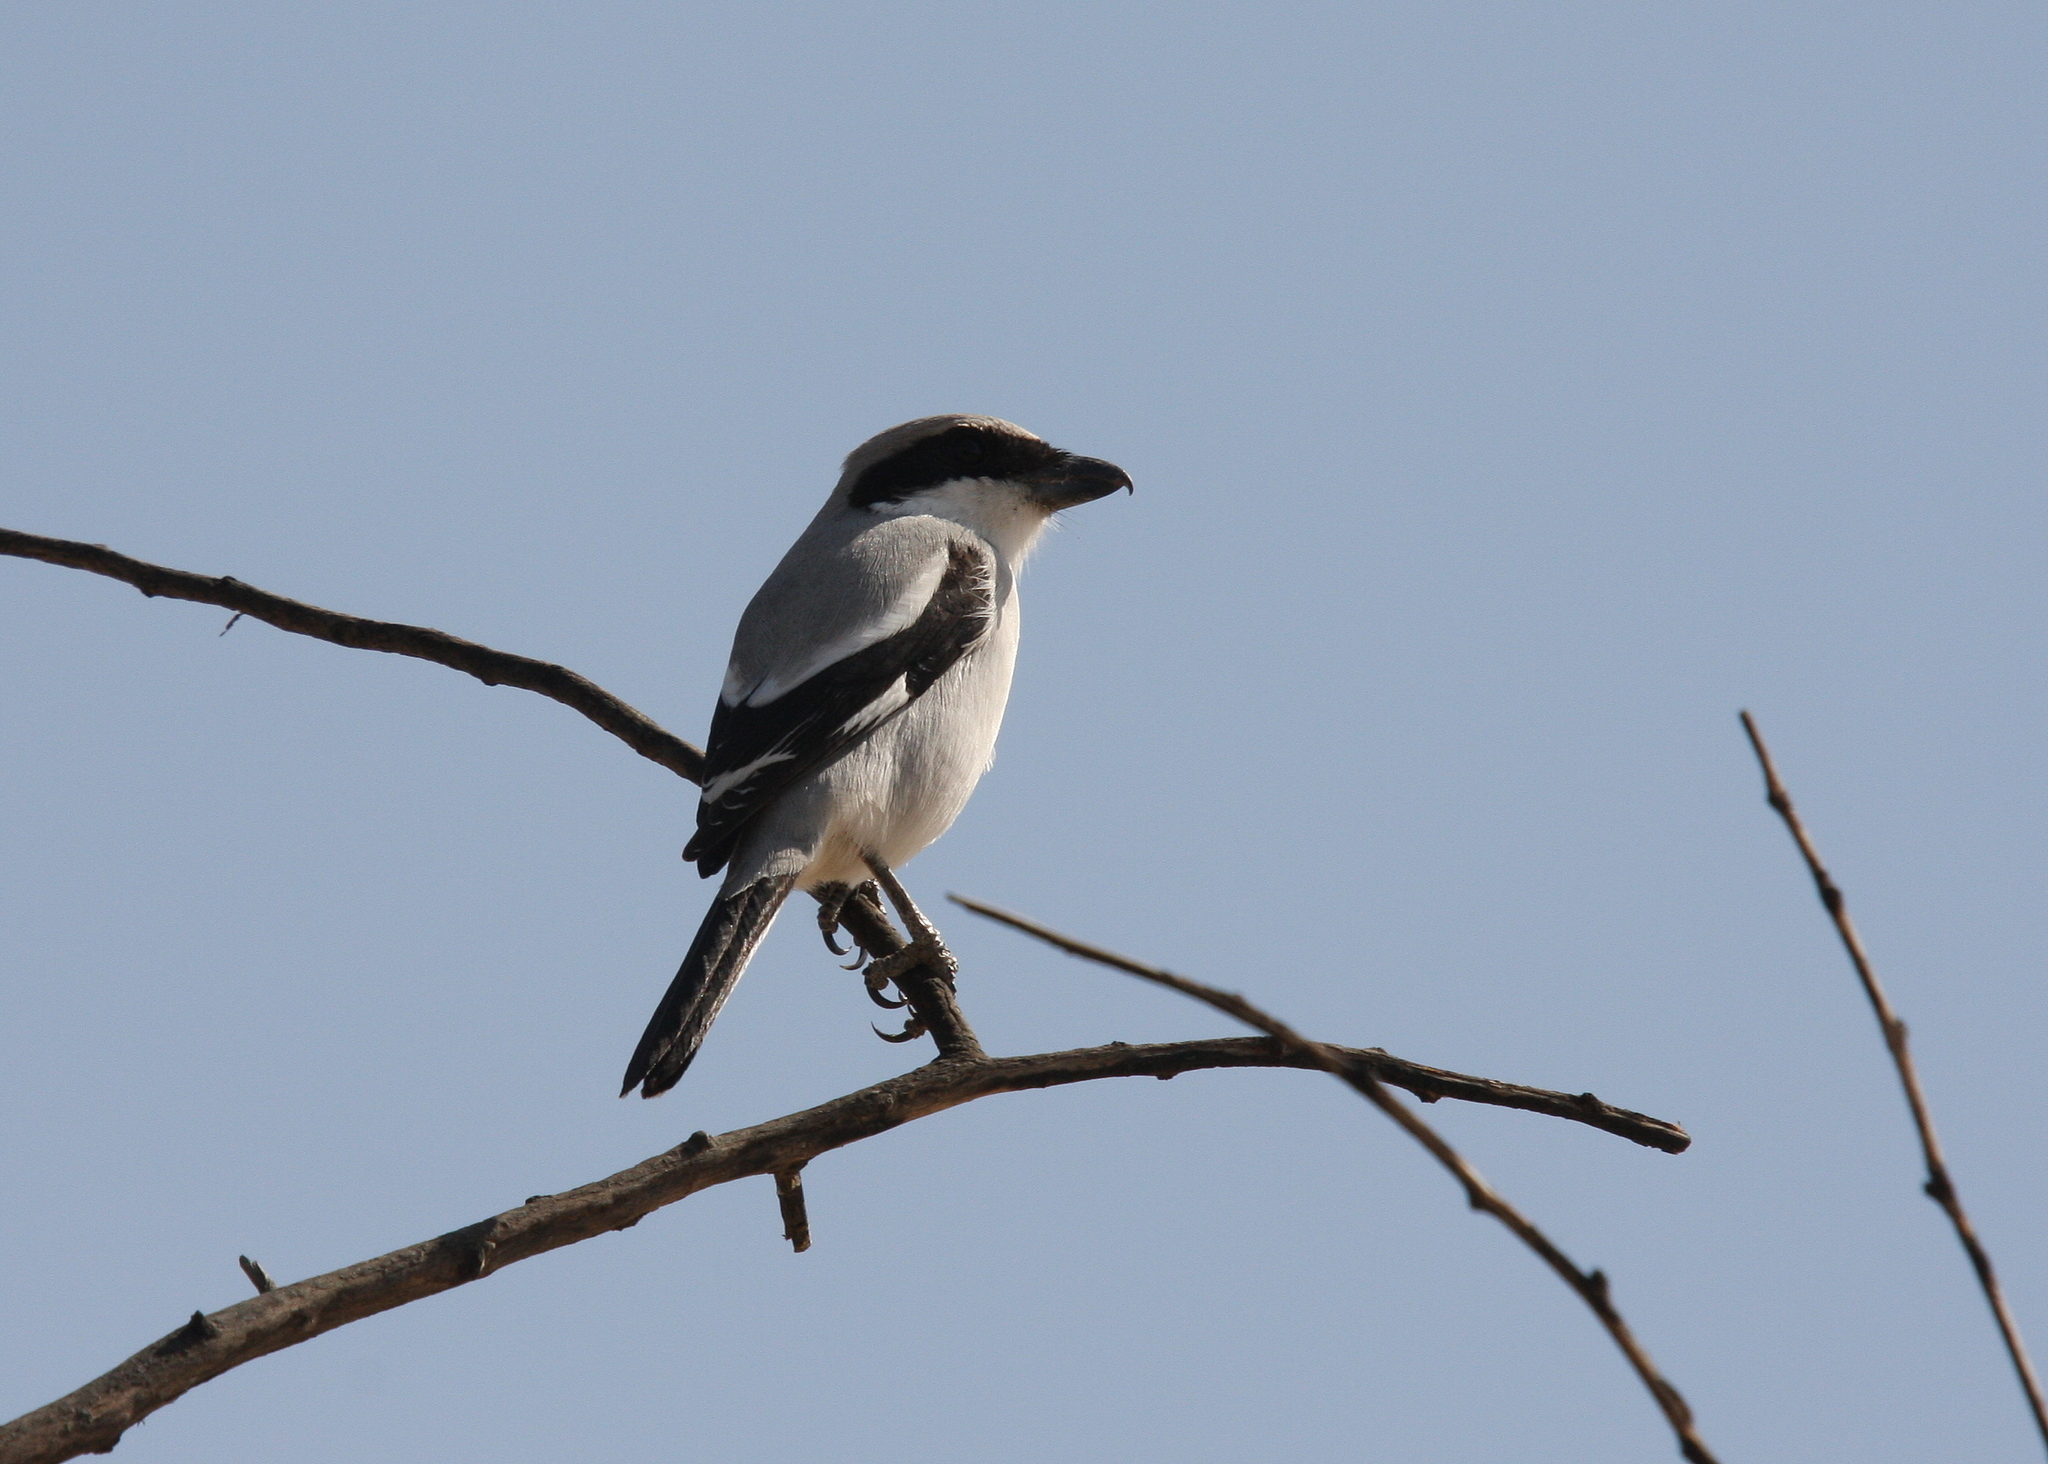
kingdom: Animalia
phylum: Chordata
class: Aves
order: Passeriformes
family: Laniidae
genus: Lanius
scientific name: Lanius excubitor
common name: Great grey shrike
